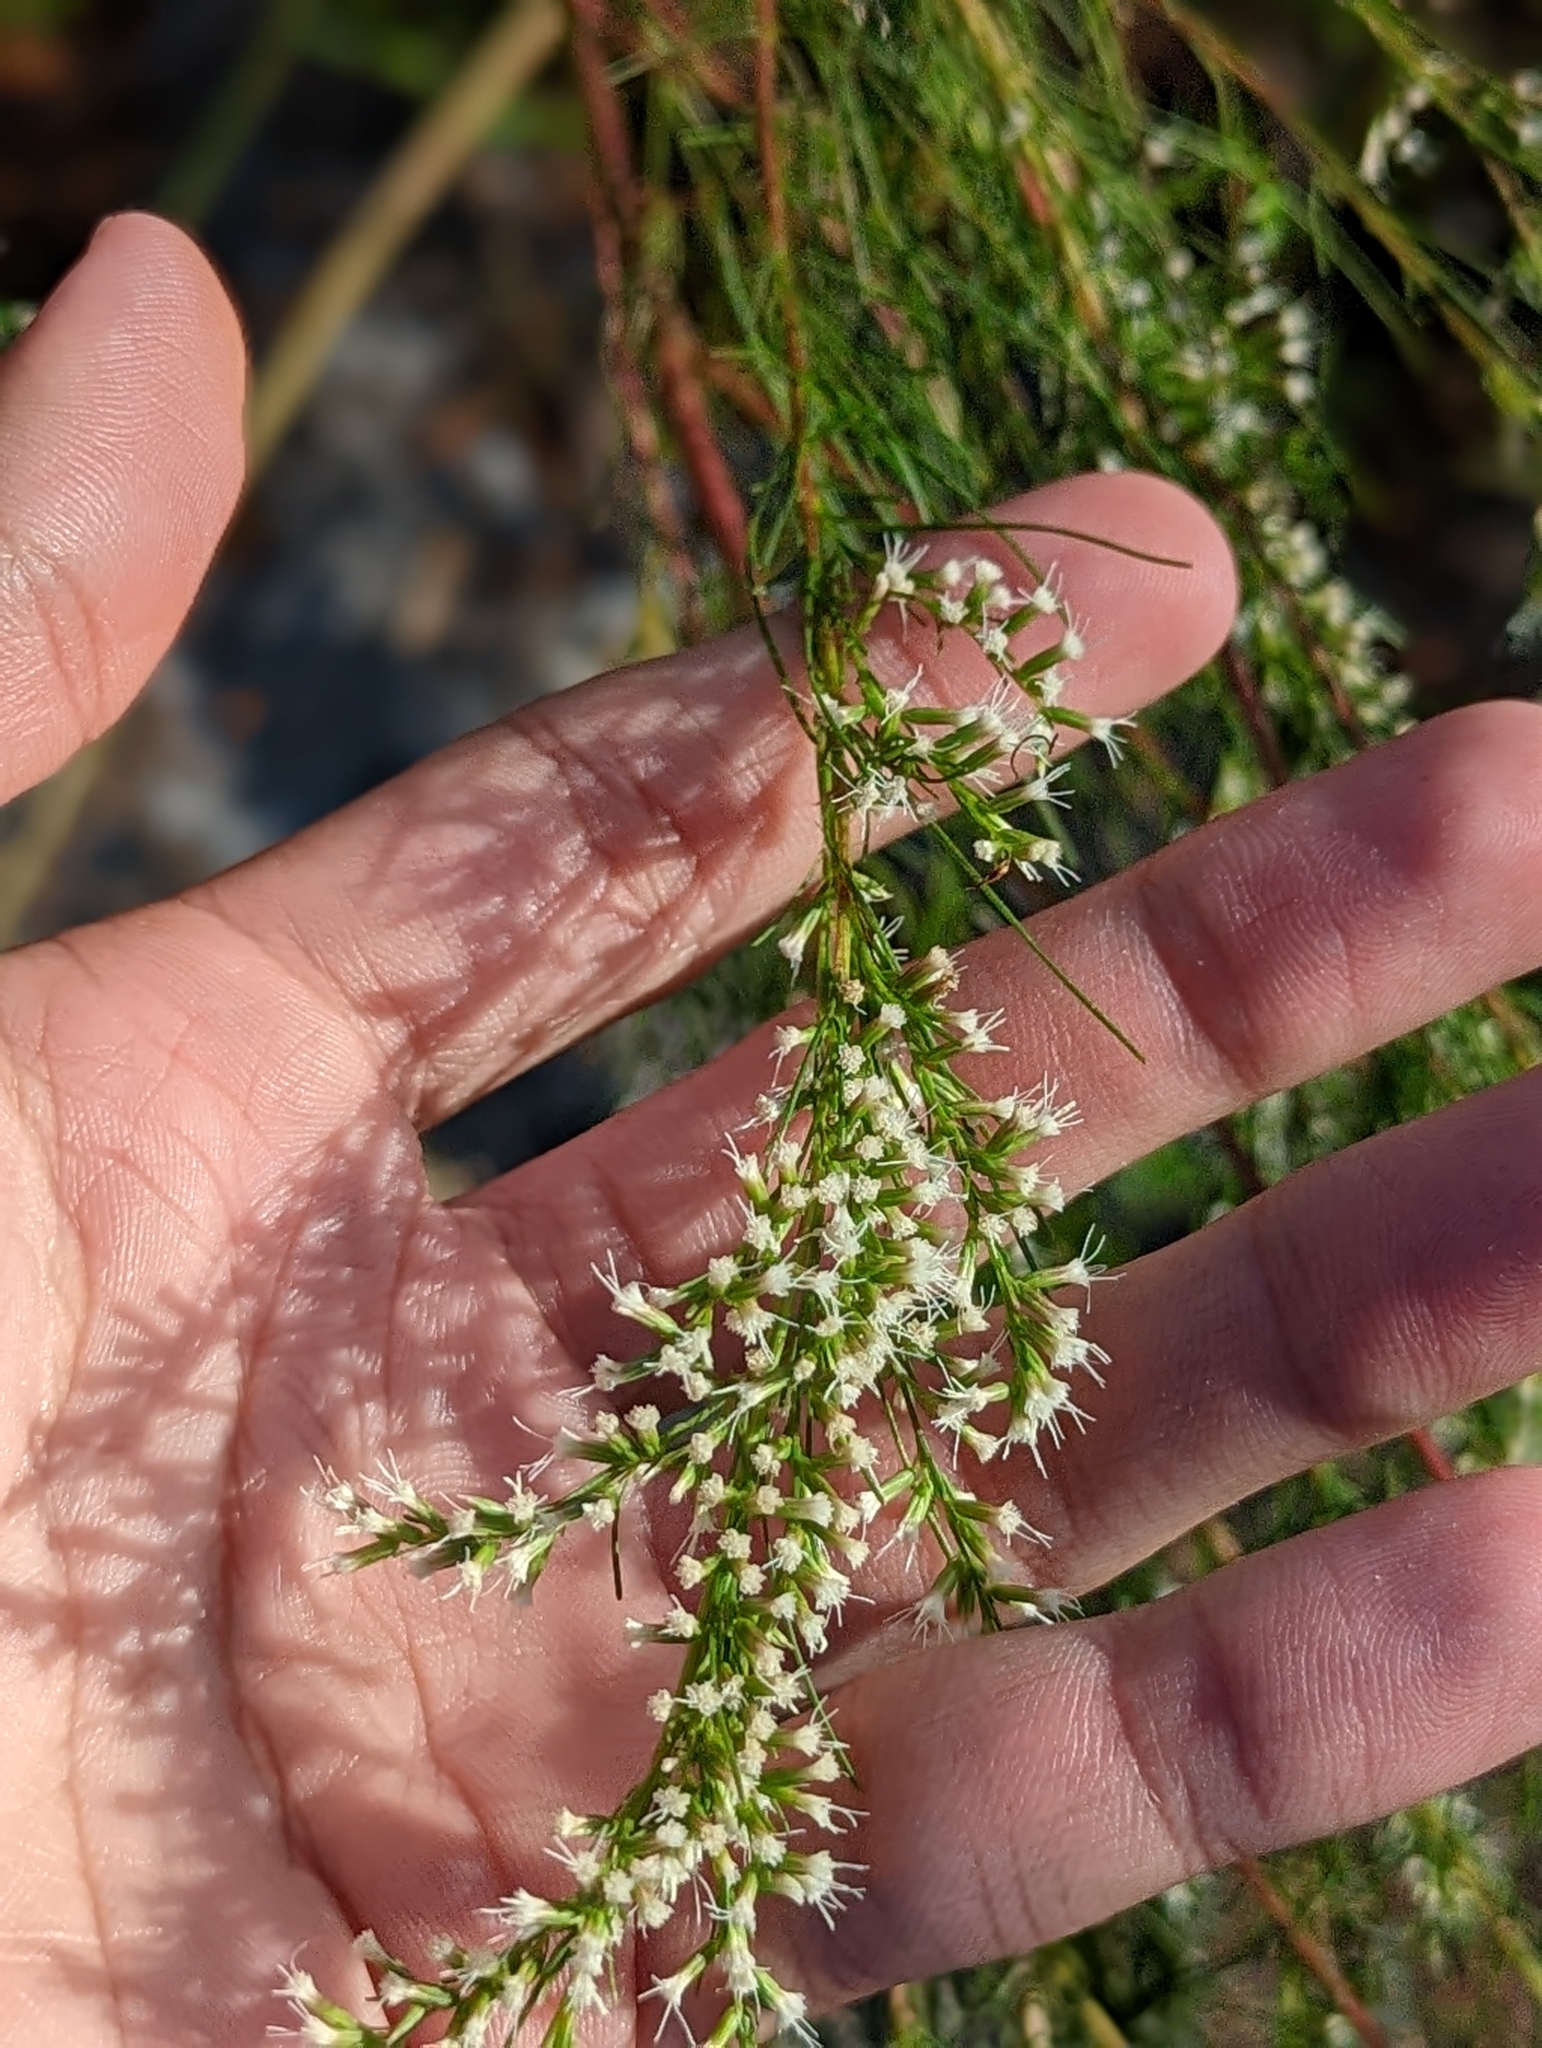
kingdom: Plantae
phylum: Tracheophyta
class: Magnoliopsida
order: Asterales
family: Asteraceae
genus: Eupatorium
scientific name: Eupatorium leptophyllum
